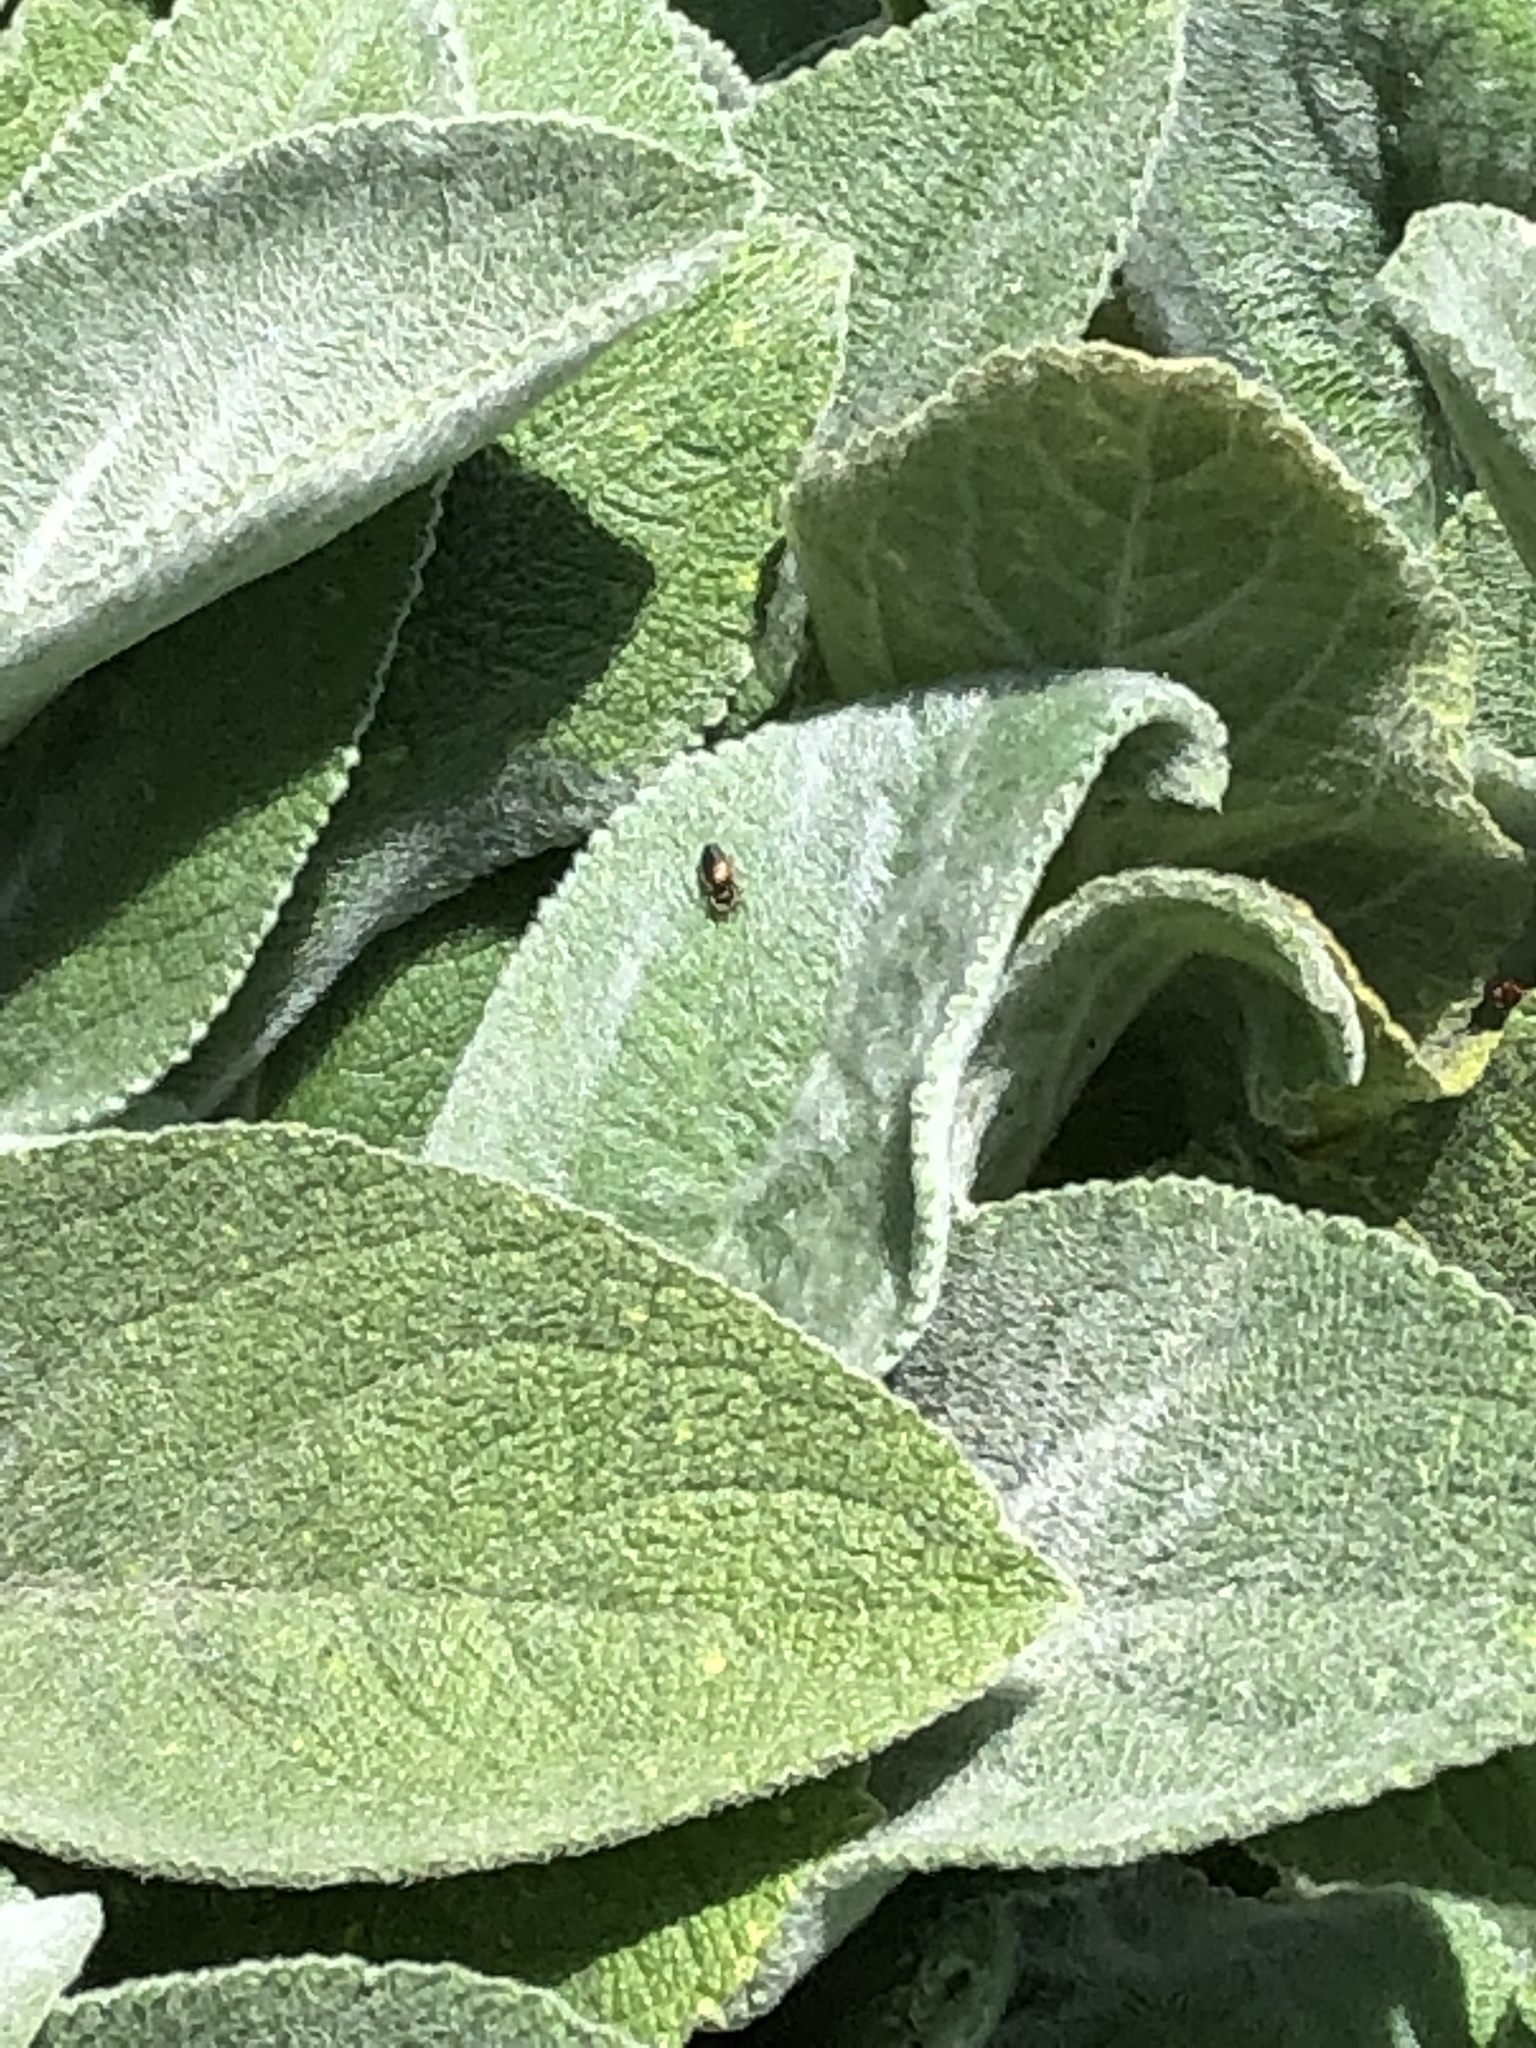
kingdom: Animalia
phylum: Arthropoda
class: Arachnida
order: Araneae
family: Salticidae
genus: Tutelina
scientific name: Tutelina elegans
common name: Thin-spined jumping spider
